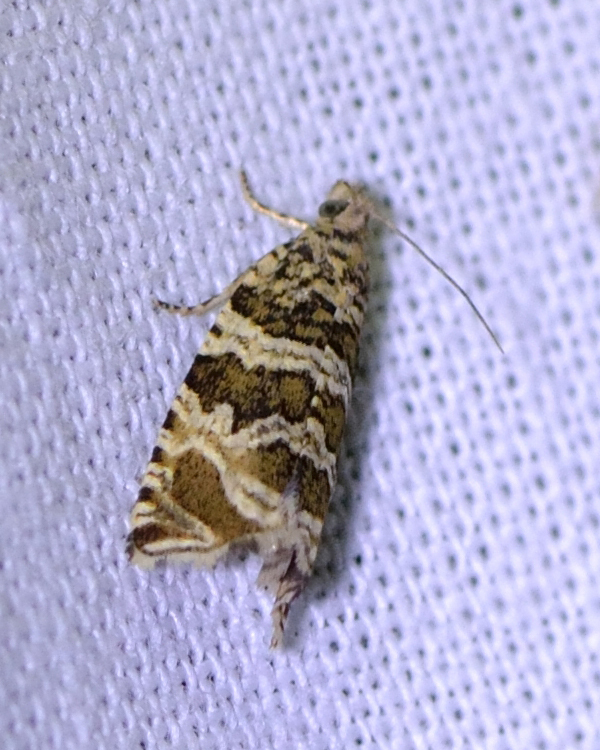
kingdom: Animalia
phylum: Arthropoda
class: Insecta
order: Lepidoptera
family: Tortricidae
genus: Syricoris
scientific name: Syricoris rivulana
